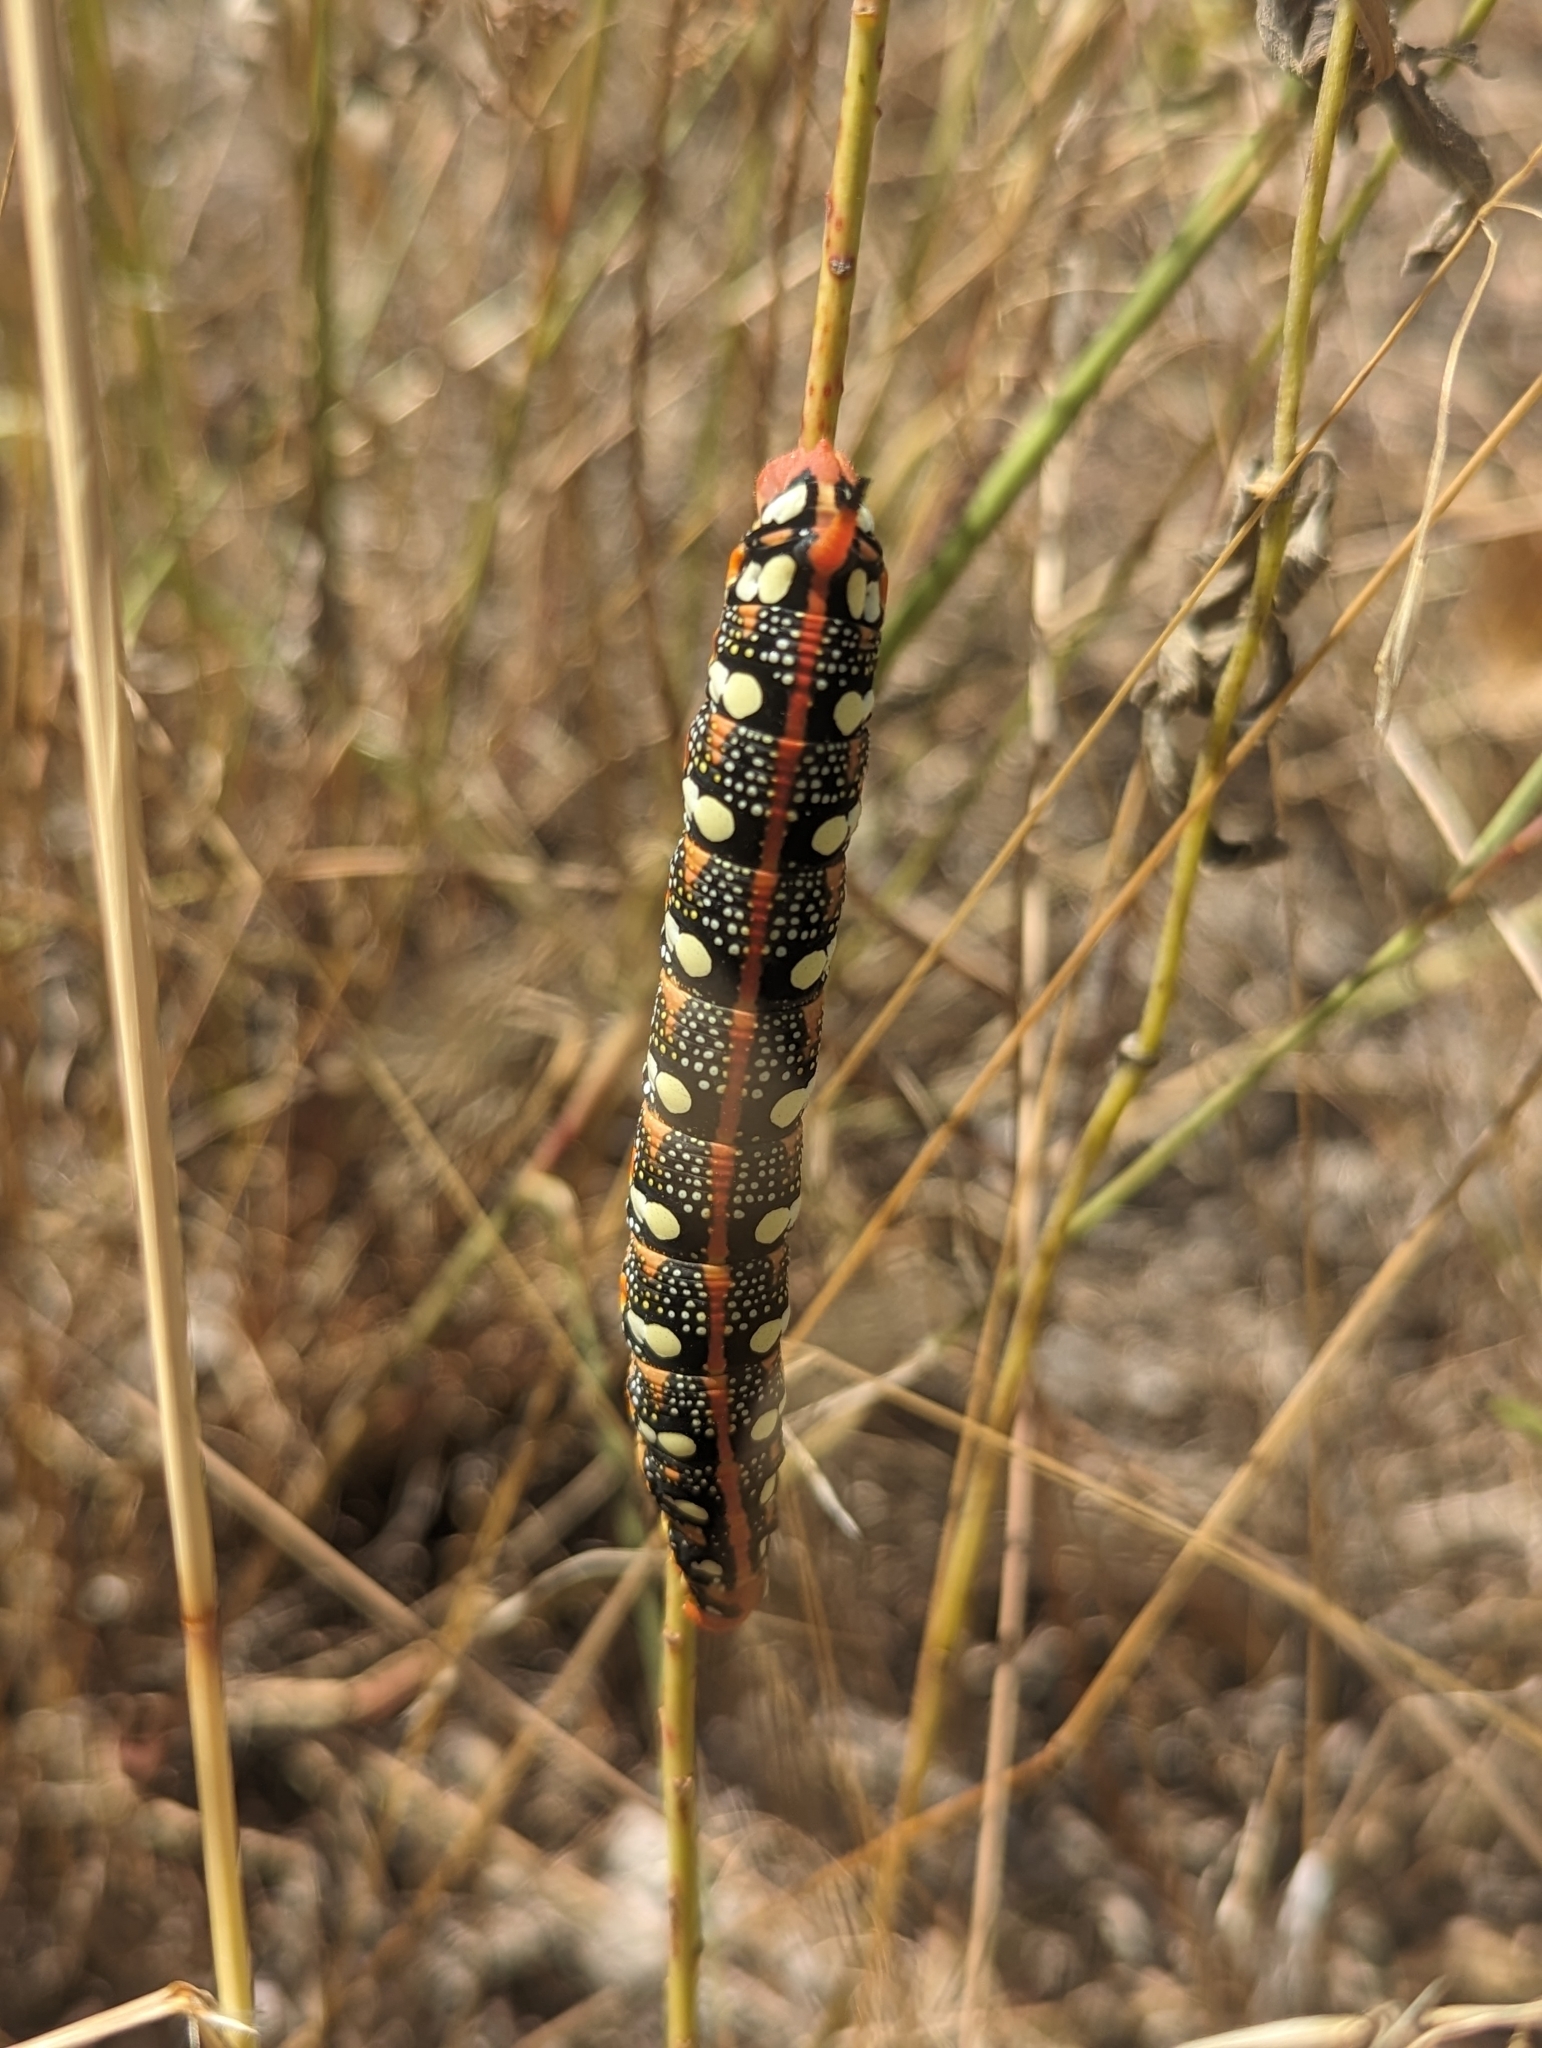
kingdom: Animalia
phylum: Arthropoda
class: Insecta
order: Lepidoptera
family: Sphingidae
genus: Hyles
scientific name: Hyles euphorbiae
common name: Spurge hawk-moth
